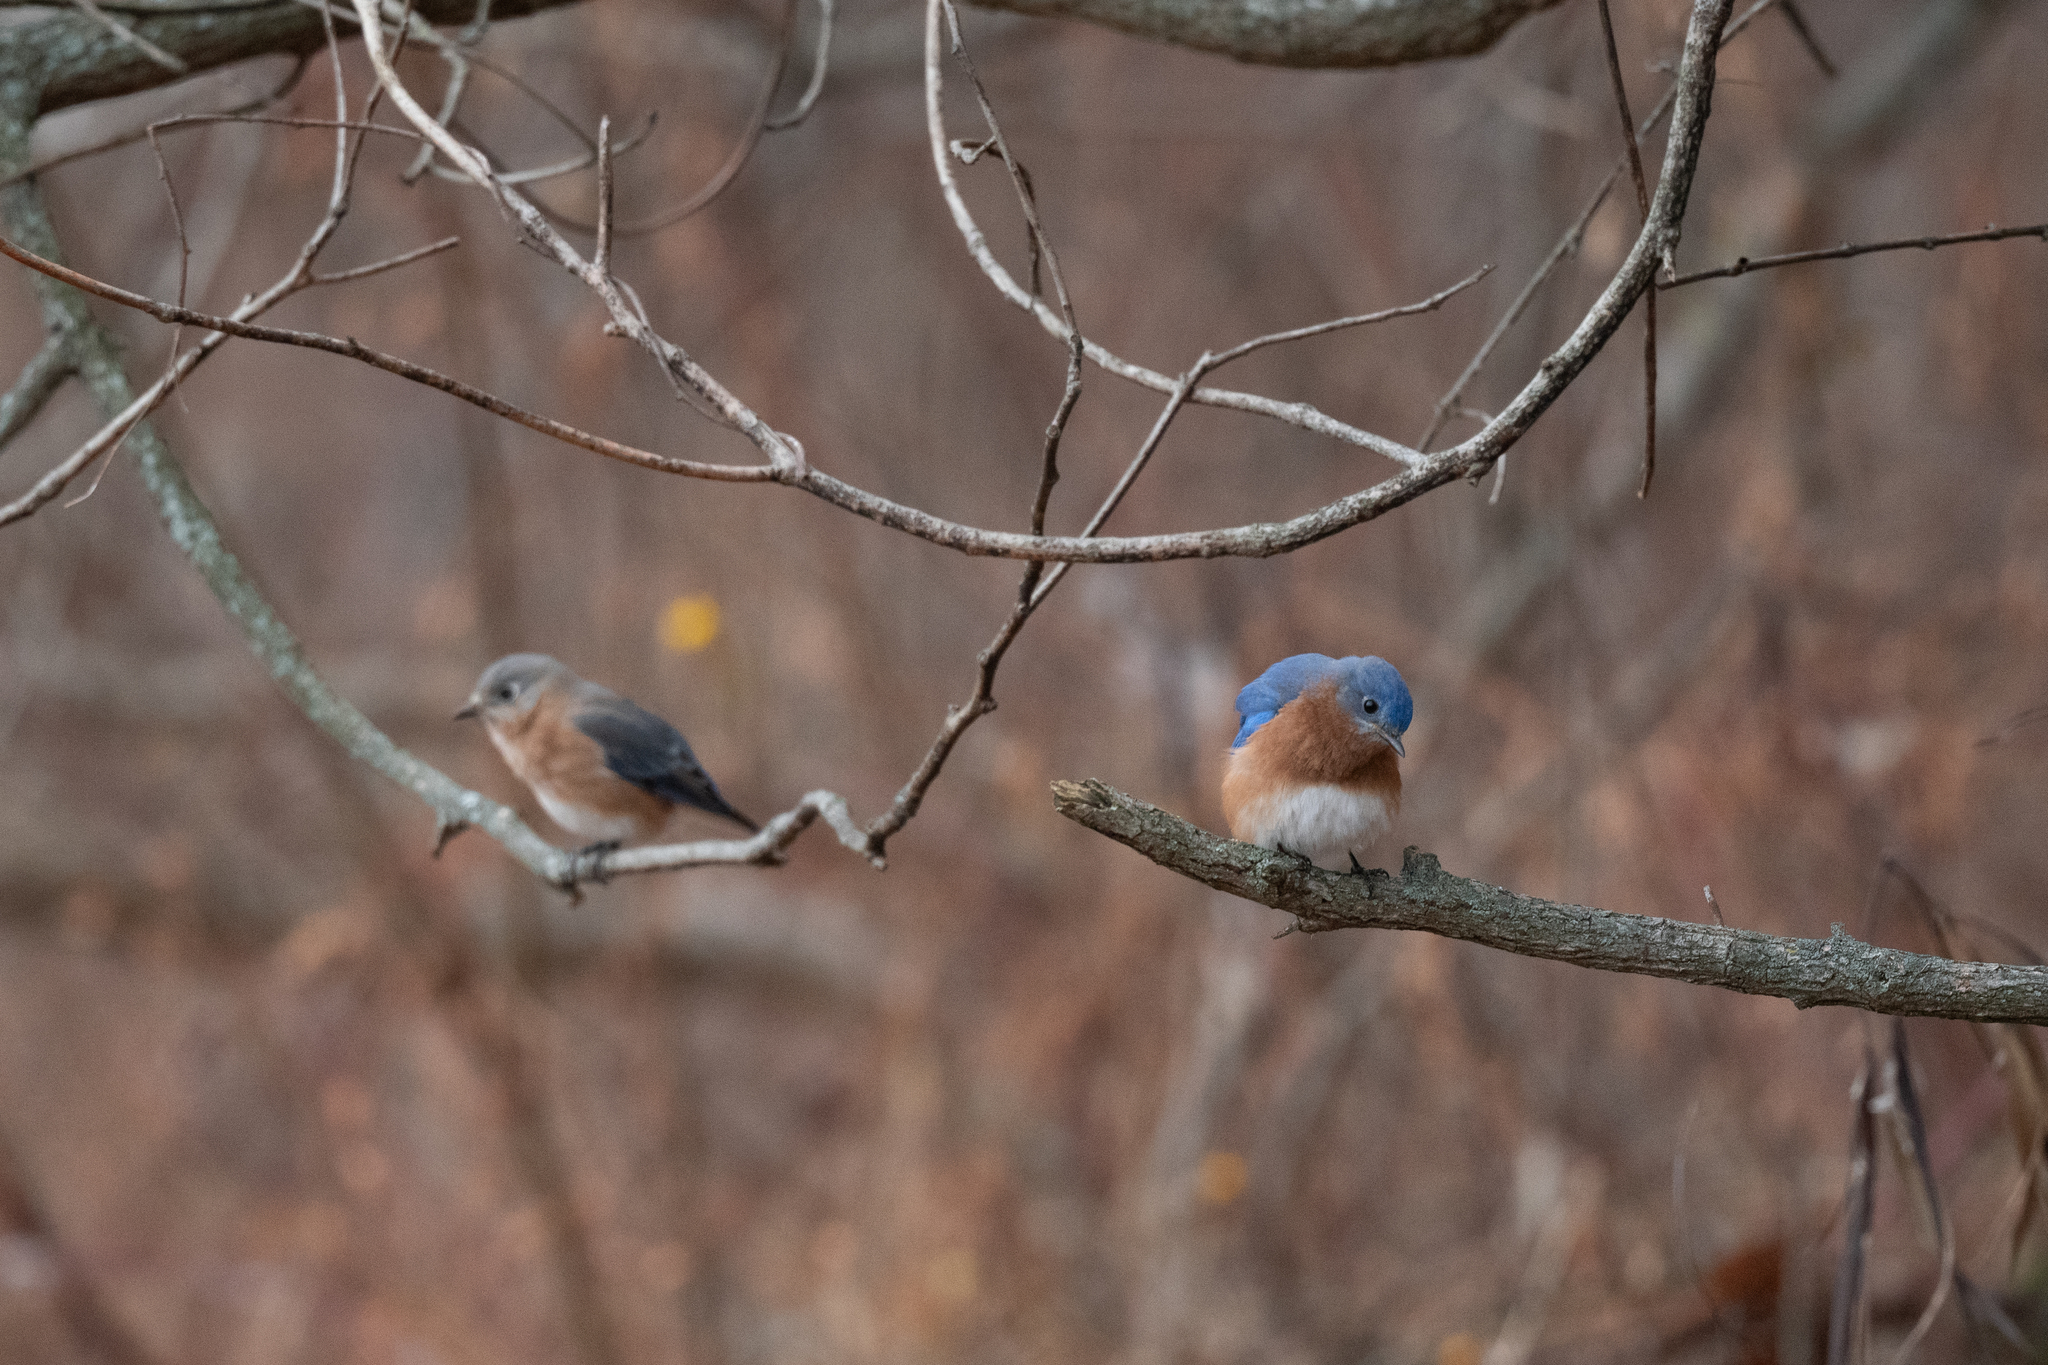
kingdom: Animalia
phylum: Chordata
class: Aves
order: Passeriformes
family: Turdidae
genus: Sialia
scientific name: Sialia sialis
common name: Eastern bluebird
